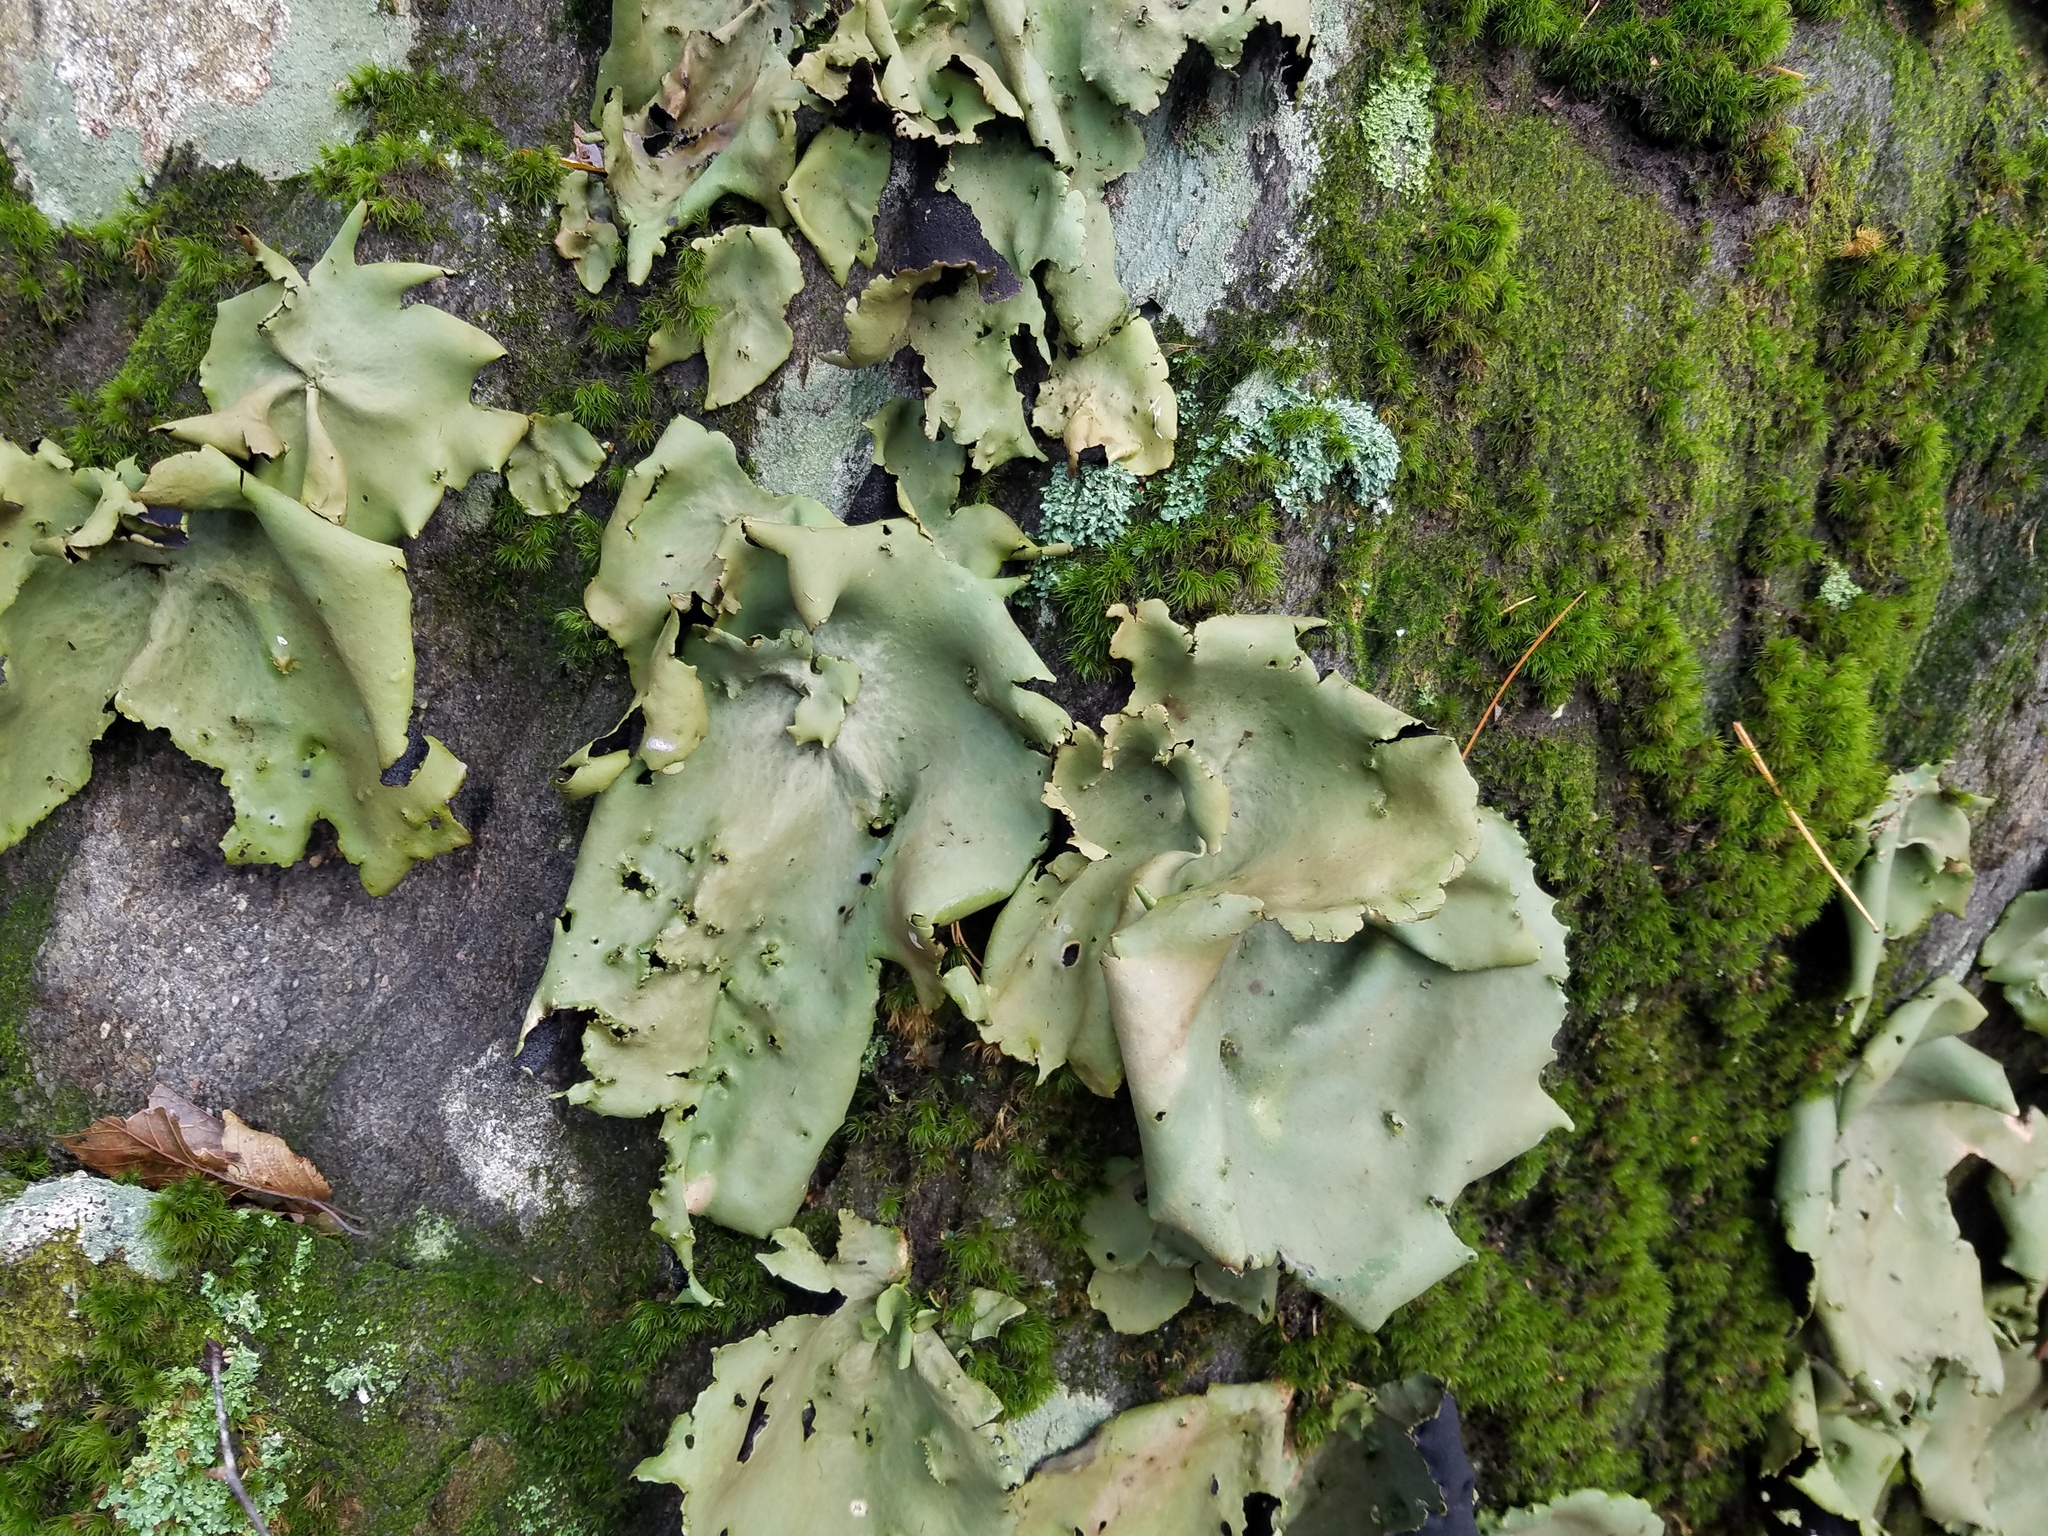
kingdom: Fungi
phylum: Ascomycota
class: Lecanoromycetes
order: Umbilicariales
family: Umbilicariaceae
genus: Umbilicaria
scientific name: Umbilicaria mammulata
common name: Smooth rock tripe
